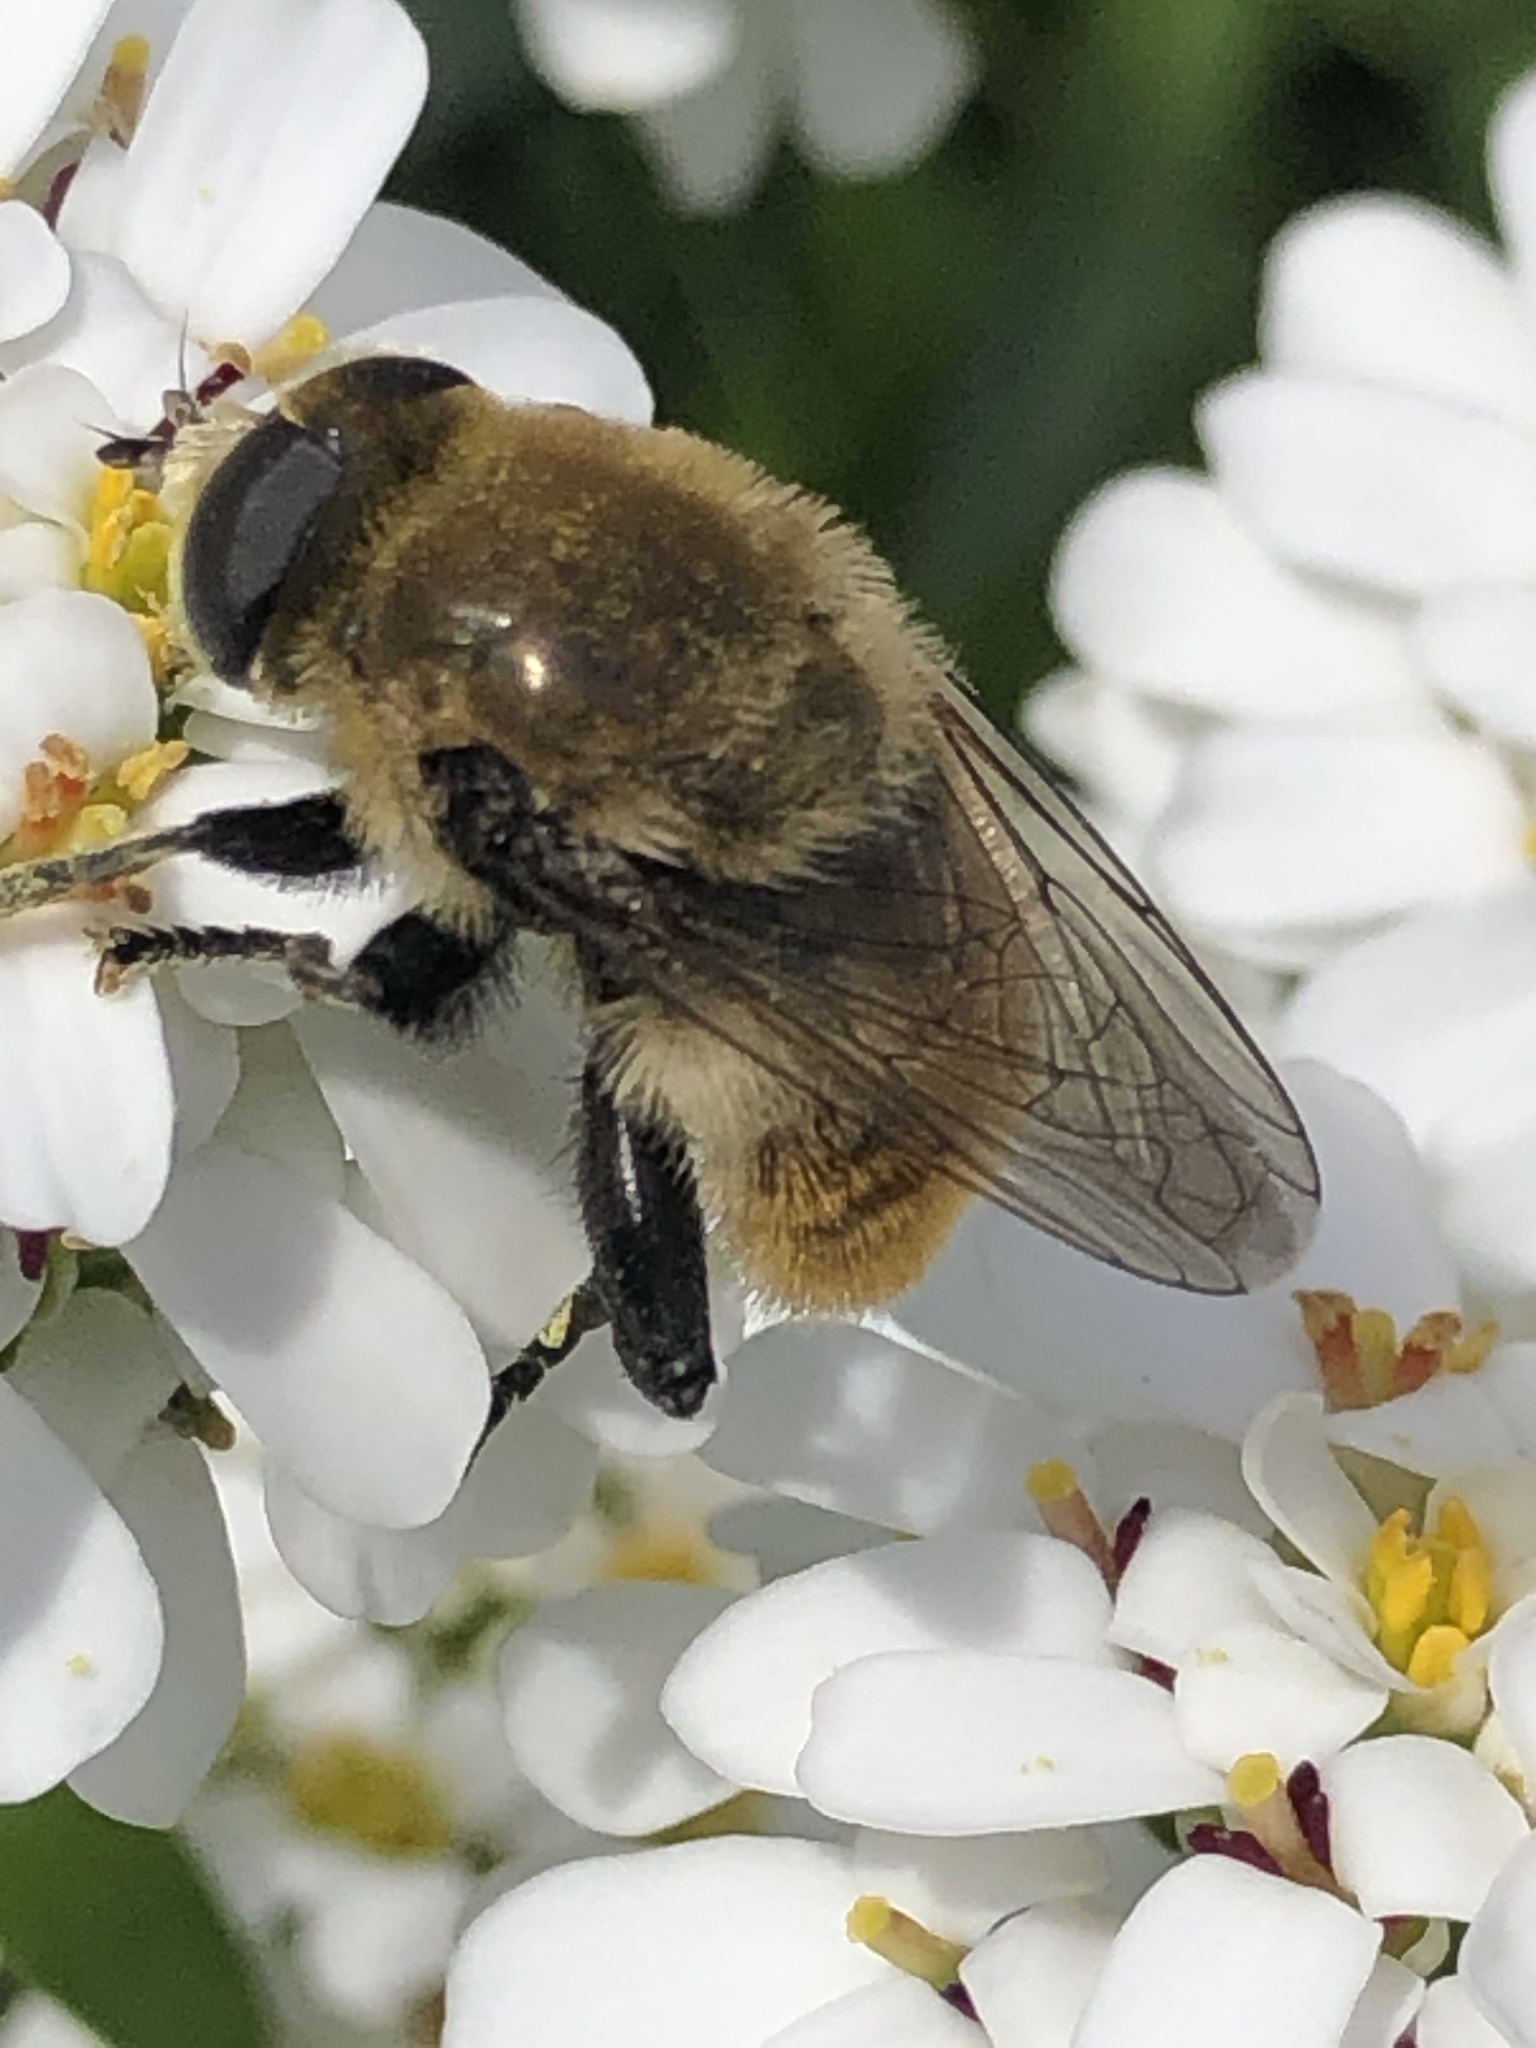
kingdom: Animalia
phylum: Arthropoda
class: Insecta
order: Diptera
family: Syrphidae
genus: Merodon
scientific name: Merodon equestris
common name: Greater bulb-fly
